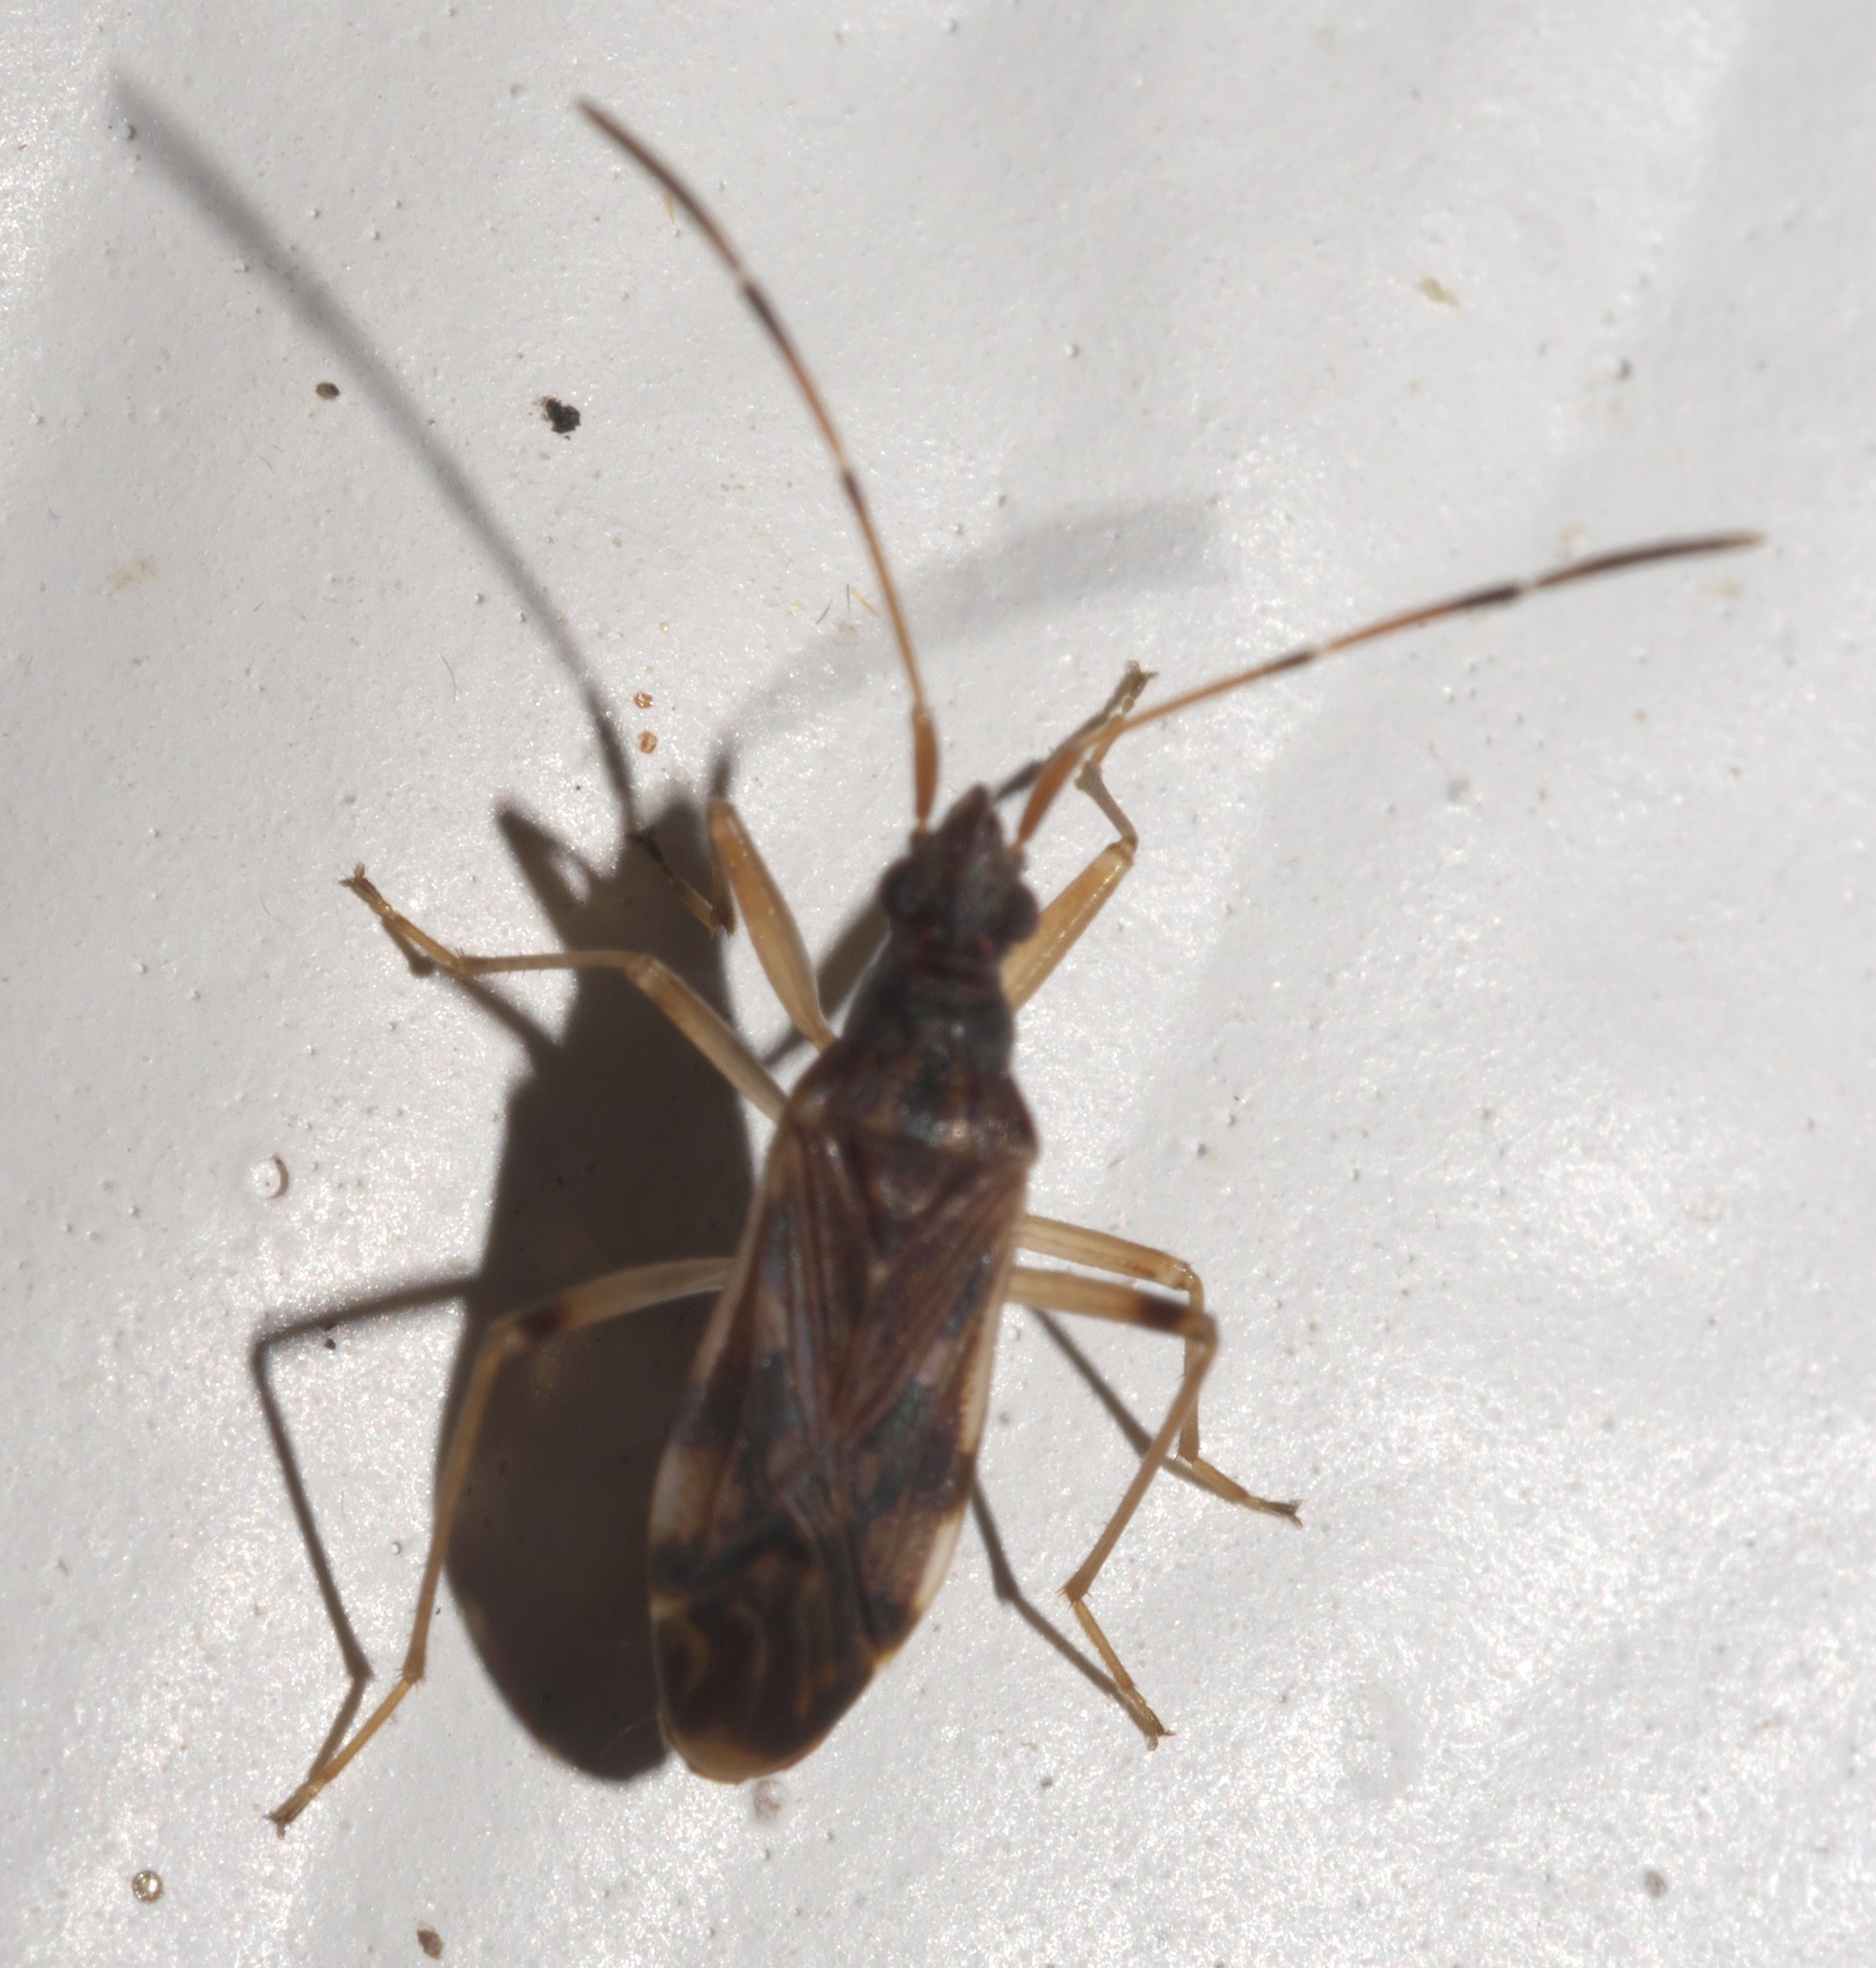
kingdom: Animalia
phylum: Arthropoda
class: Insecta
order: Hemiptera
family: Rhyparochromidae
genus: Ozophora
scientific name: Ozophora salsaverdeae
